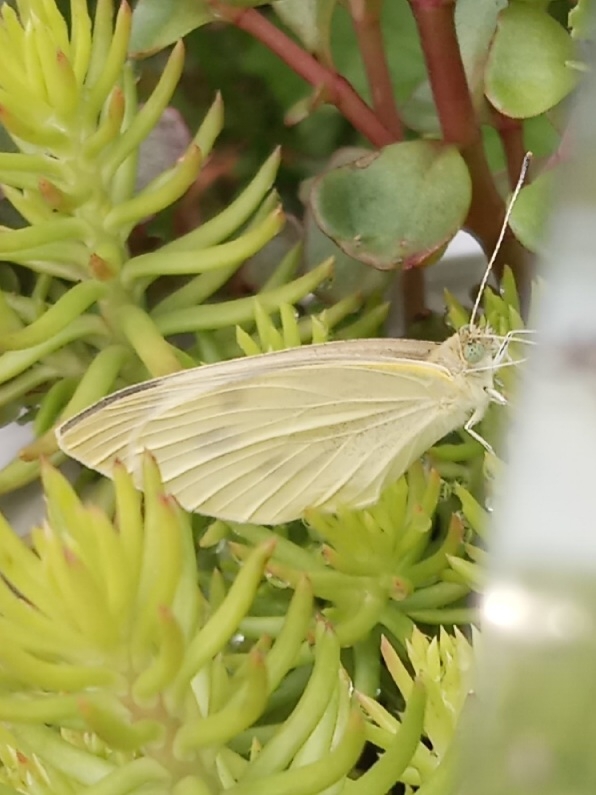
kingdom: Animalia
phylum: Arthropoda
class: Insecta
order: Lepidoptera
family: Pieridae
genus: Pieris
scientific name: Pieris rapae
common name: Small white
